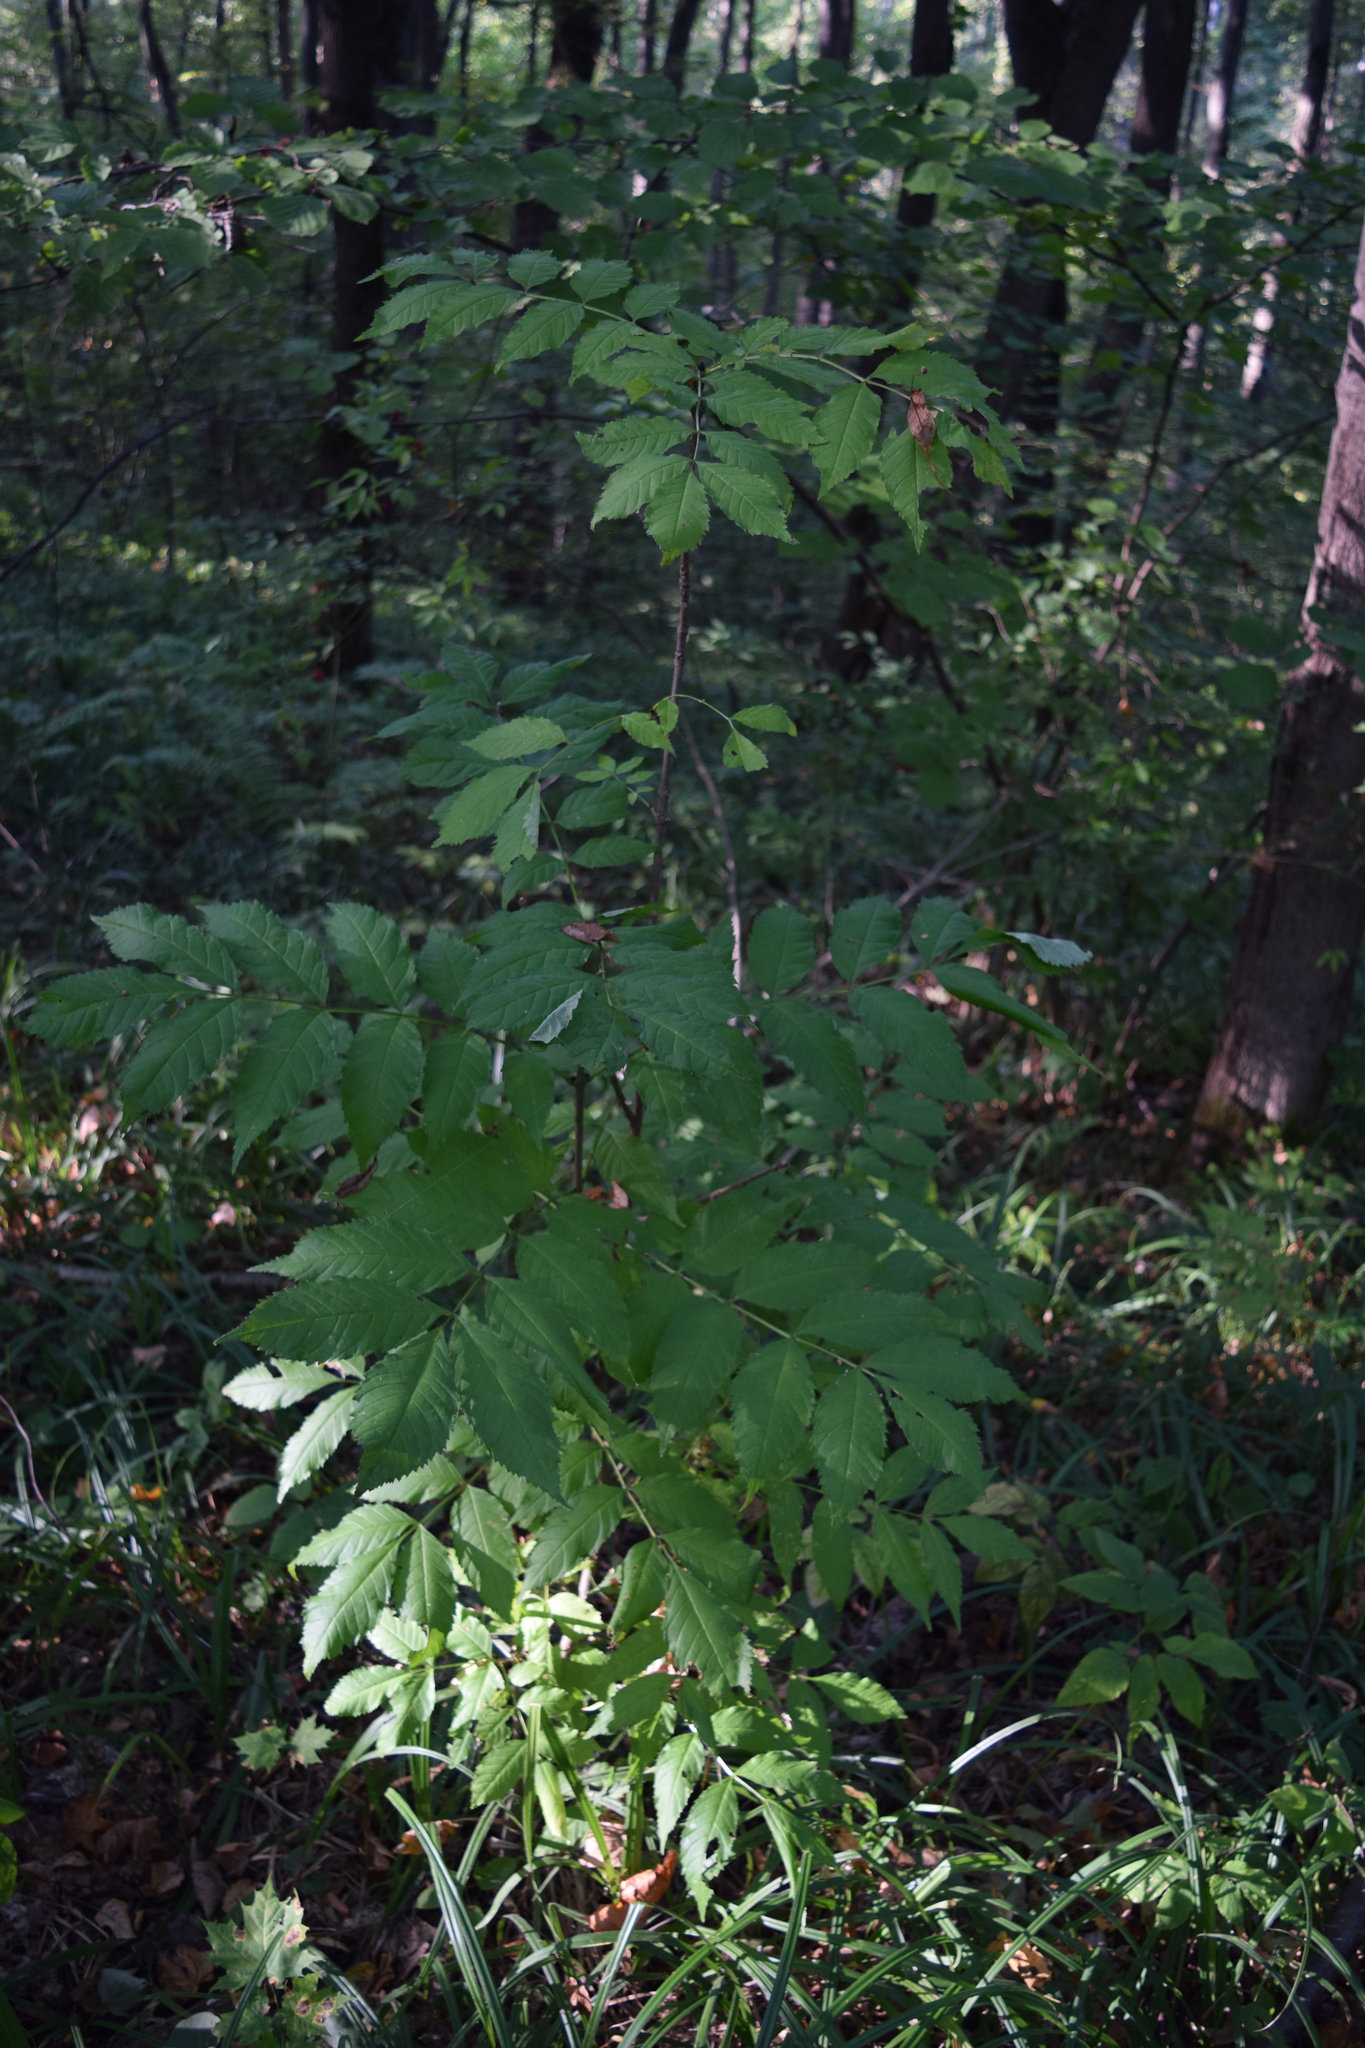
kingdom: Plantae
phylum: Tracheophyta
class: Magnoliopsida
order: Lamiales
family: Oleaceae
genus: Fraxinus
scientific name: Fraxinus excelsior
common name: European ash
